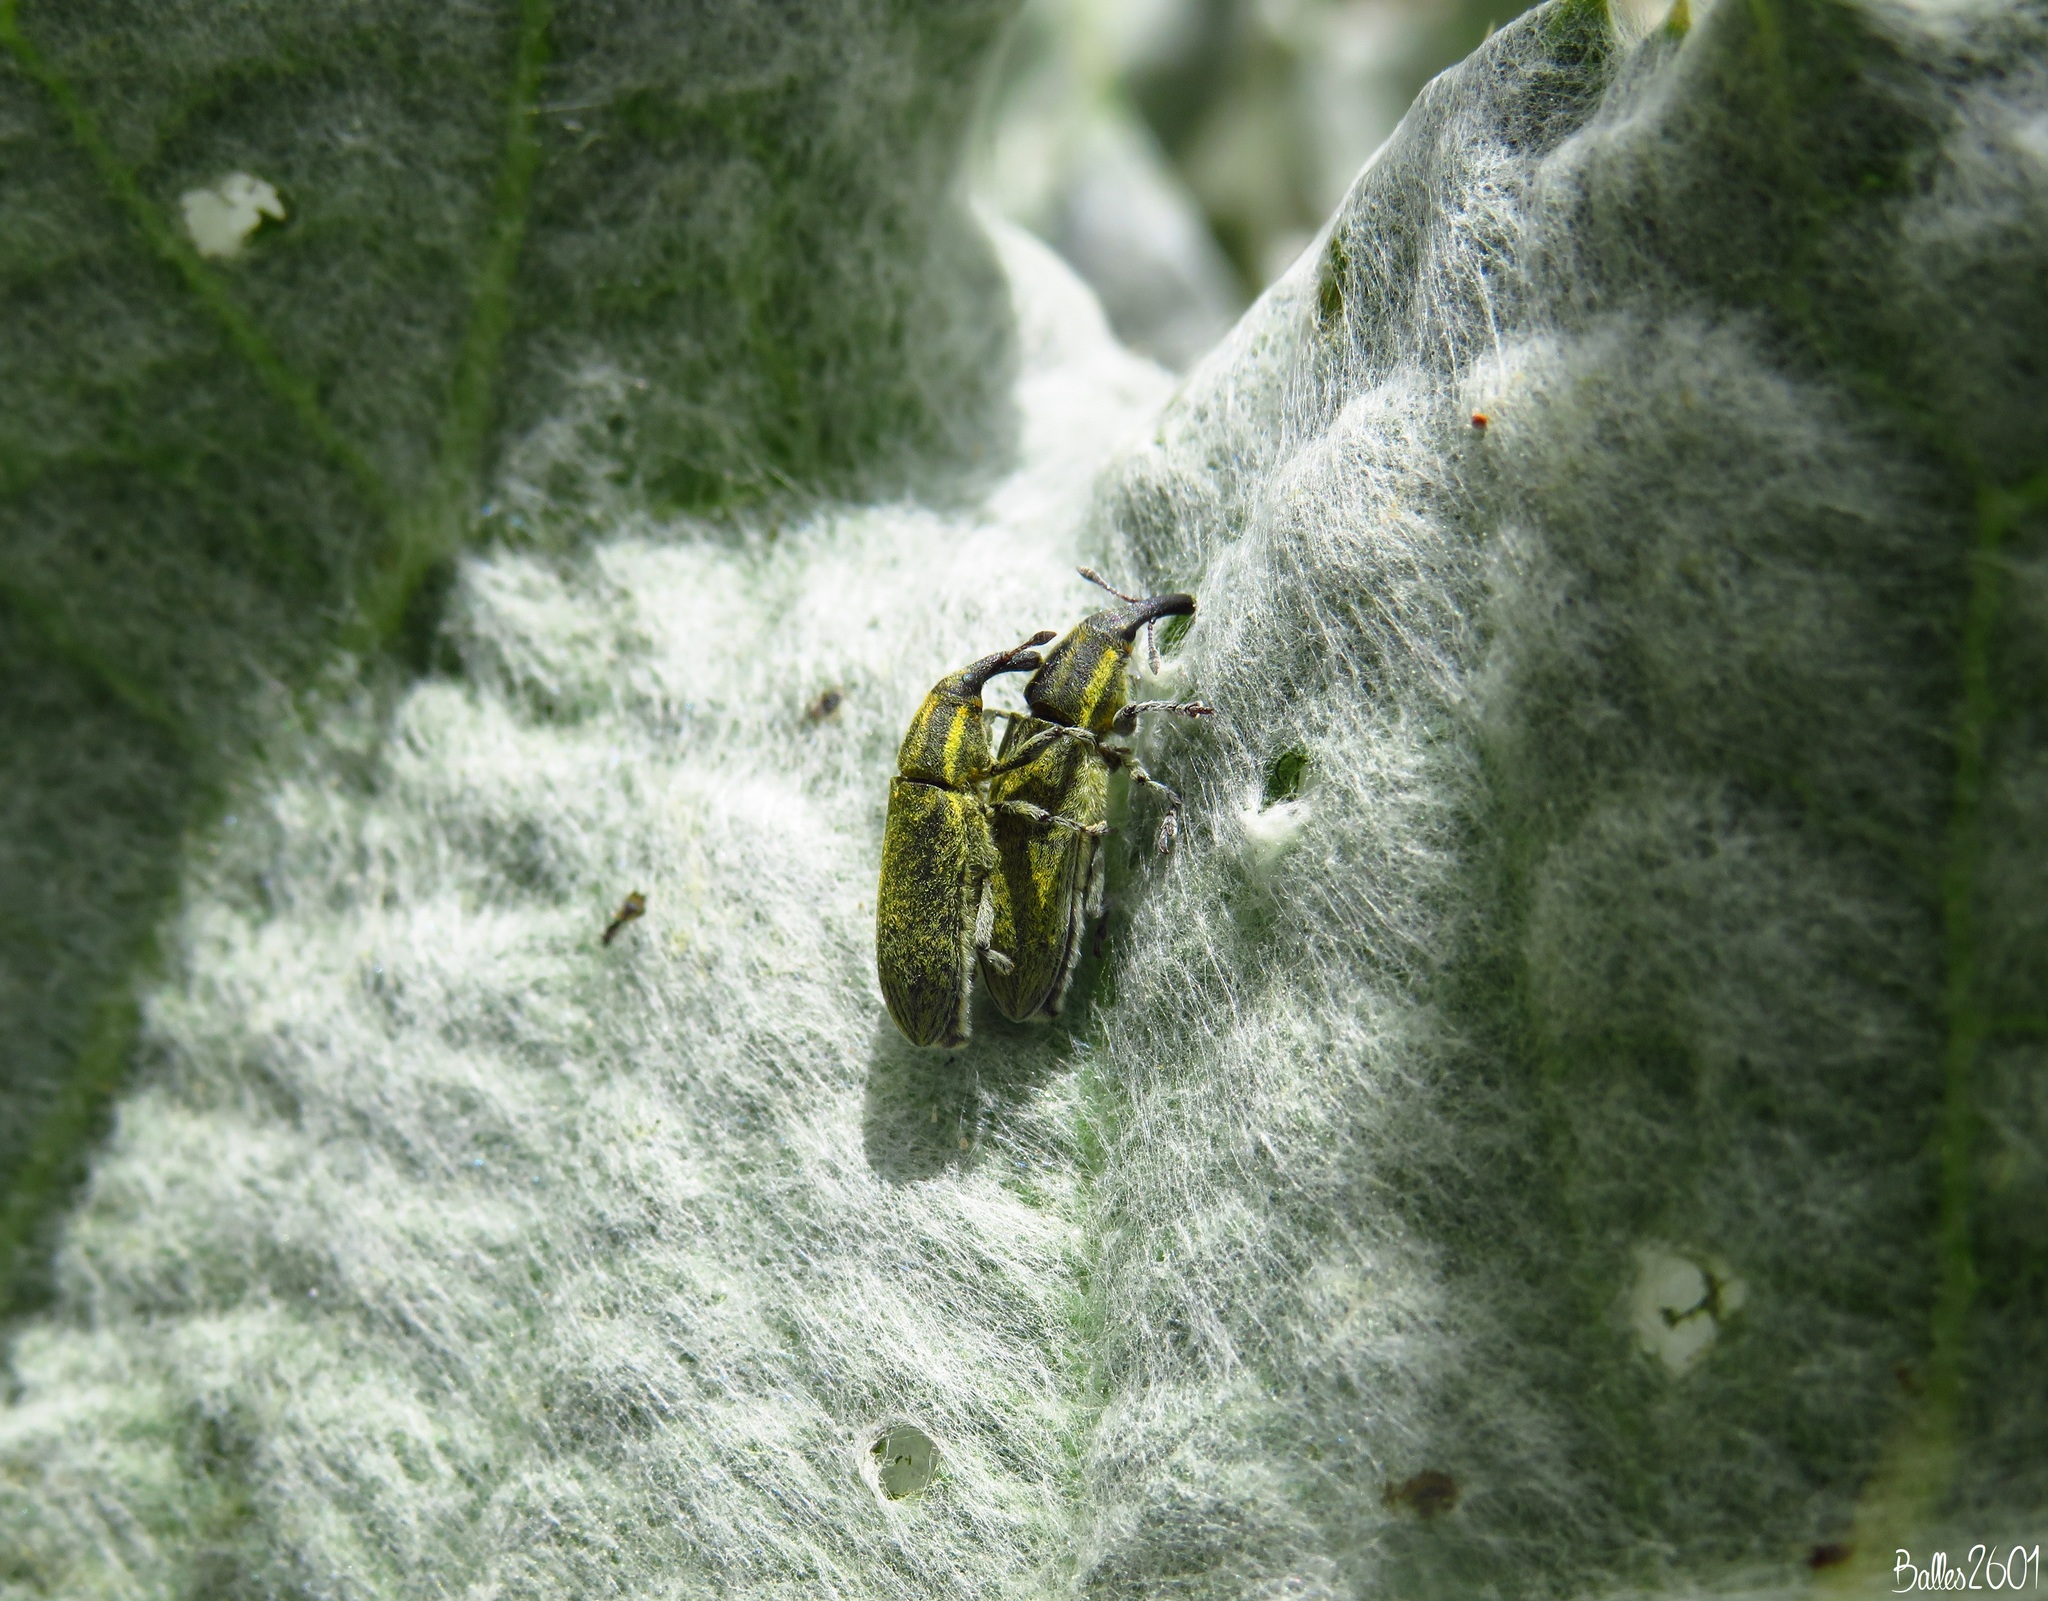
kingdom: Animalia
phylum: Arthropoda
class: Insecta
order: Coleoptera
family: Curculionidae
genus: Lixus
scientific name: Lixus cardui
